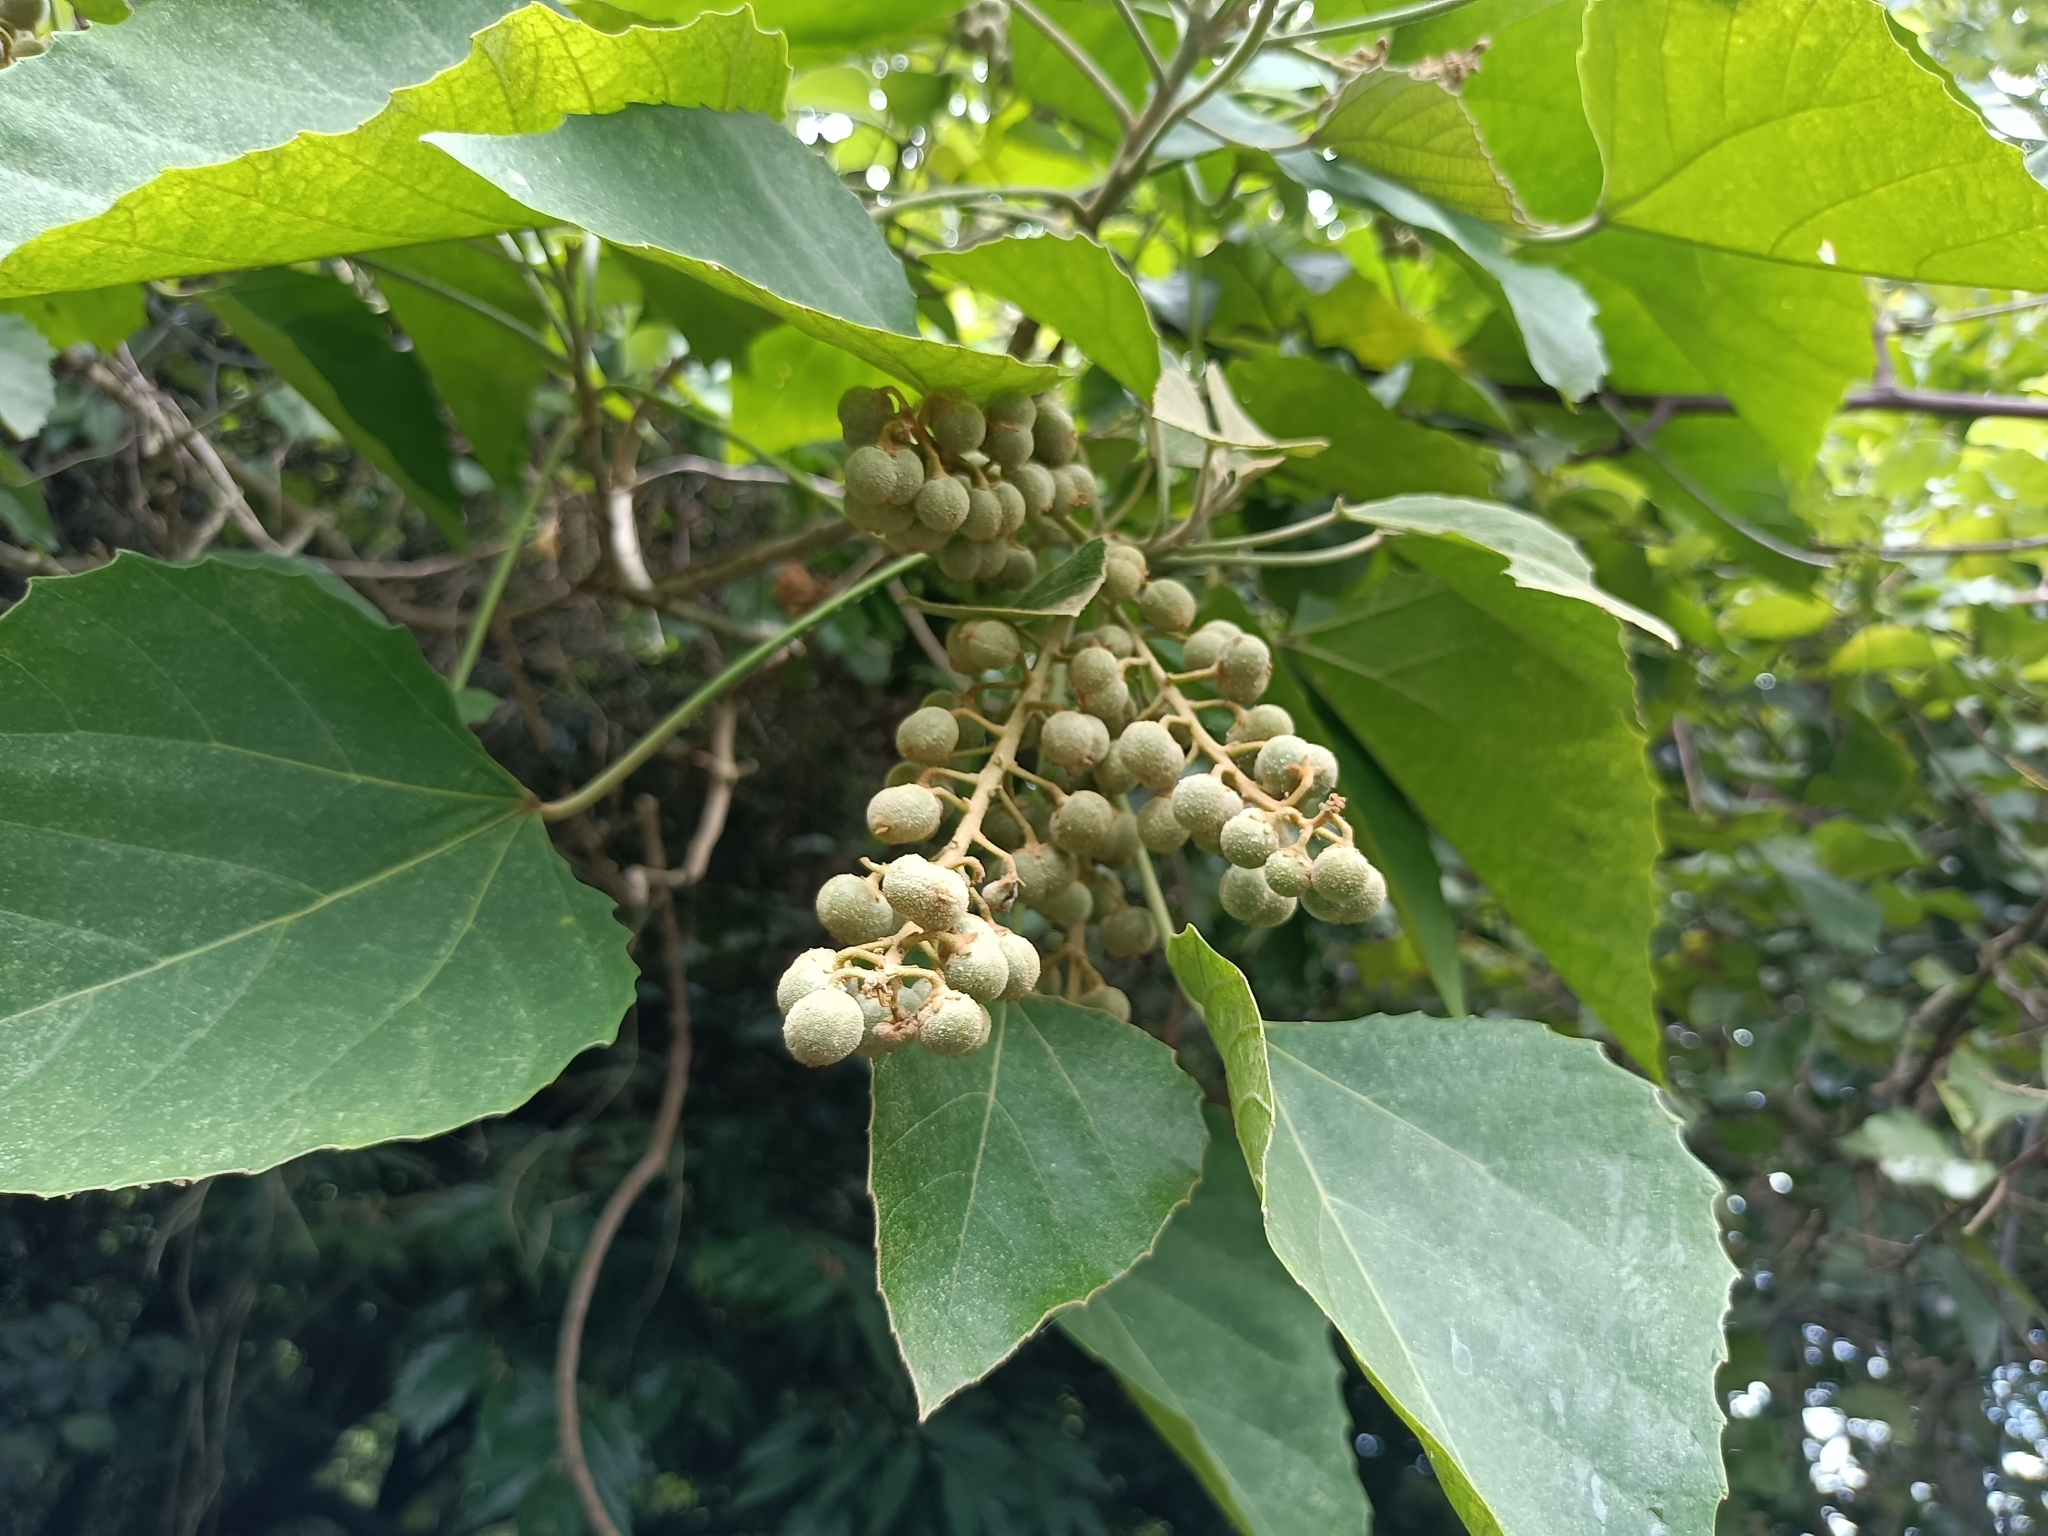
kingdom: Plantae
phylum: Tracheophyta
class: Magnoliopsida
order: Malpighiales
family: Euphorbiaceae
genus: Melanolepis
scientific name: Melanolepis multiglandulosa
